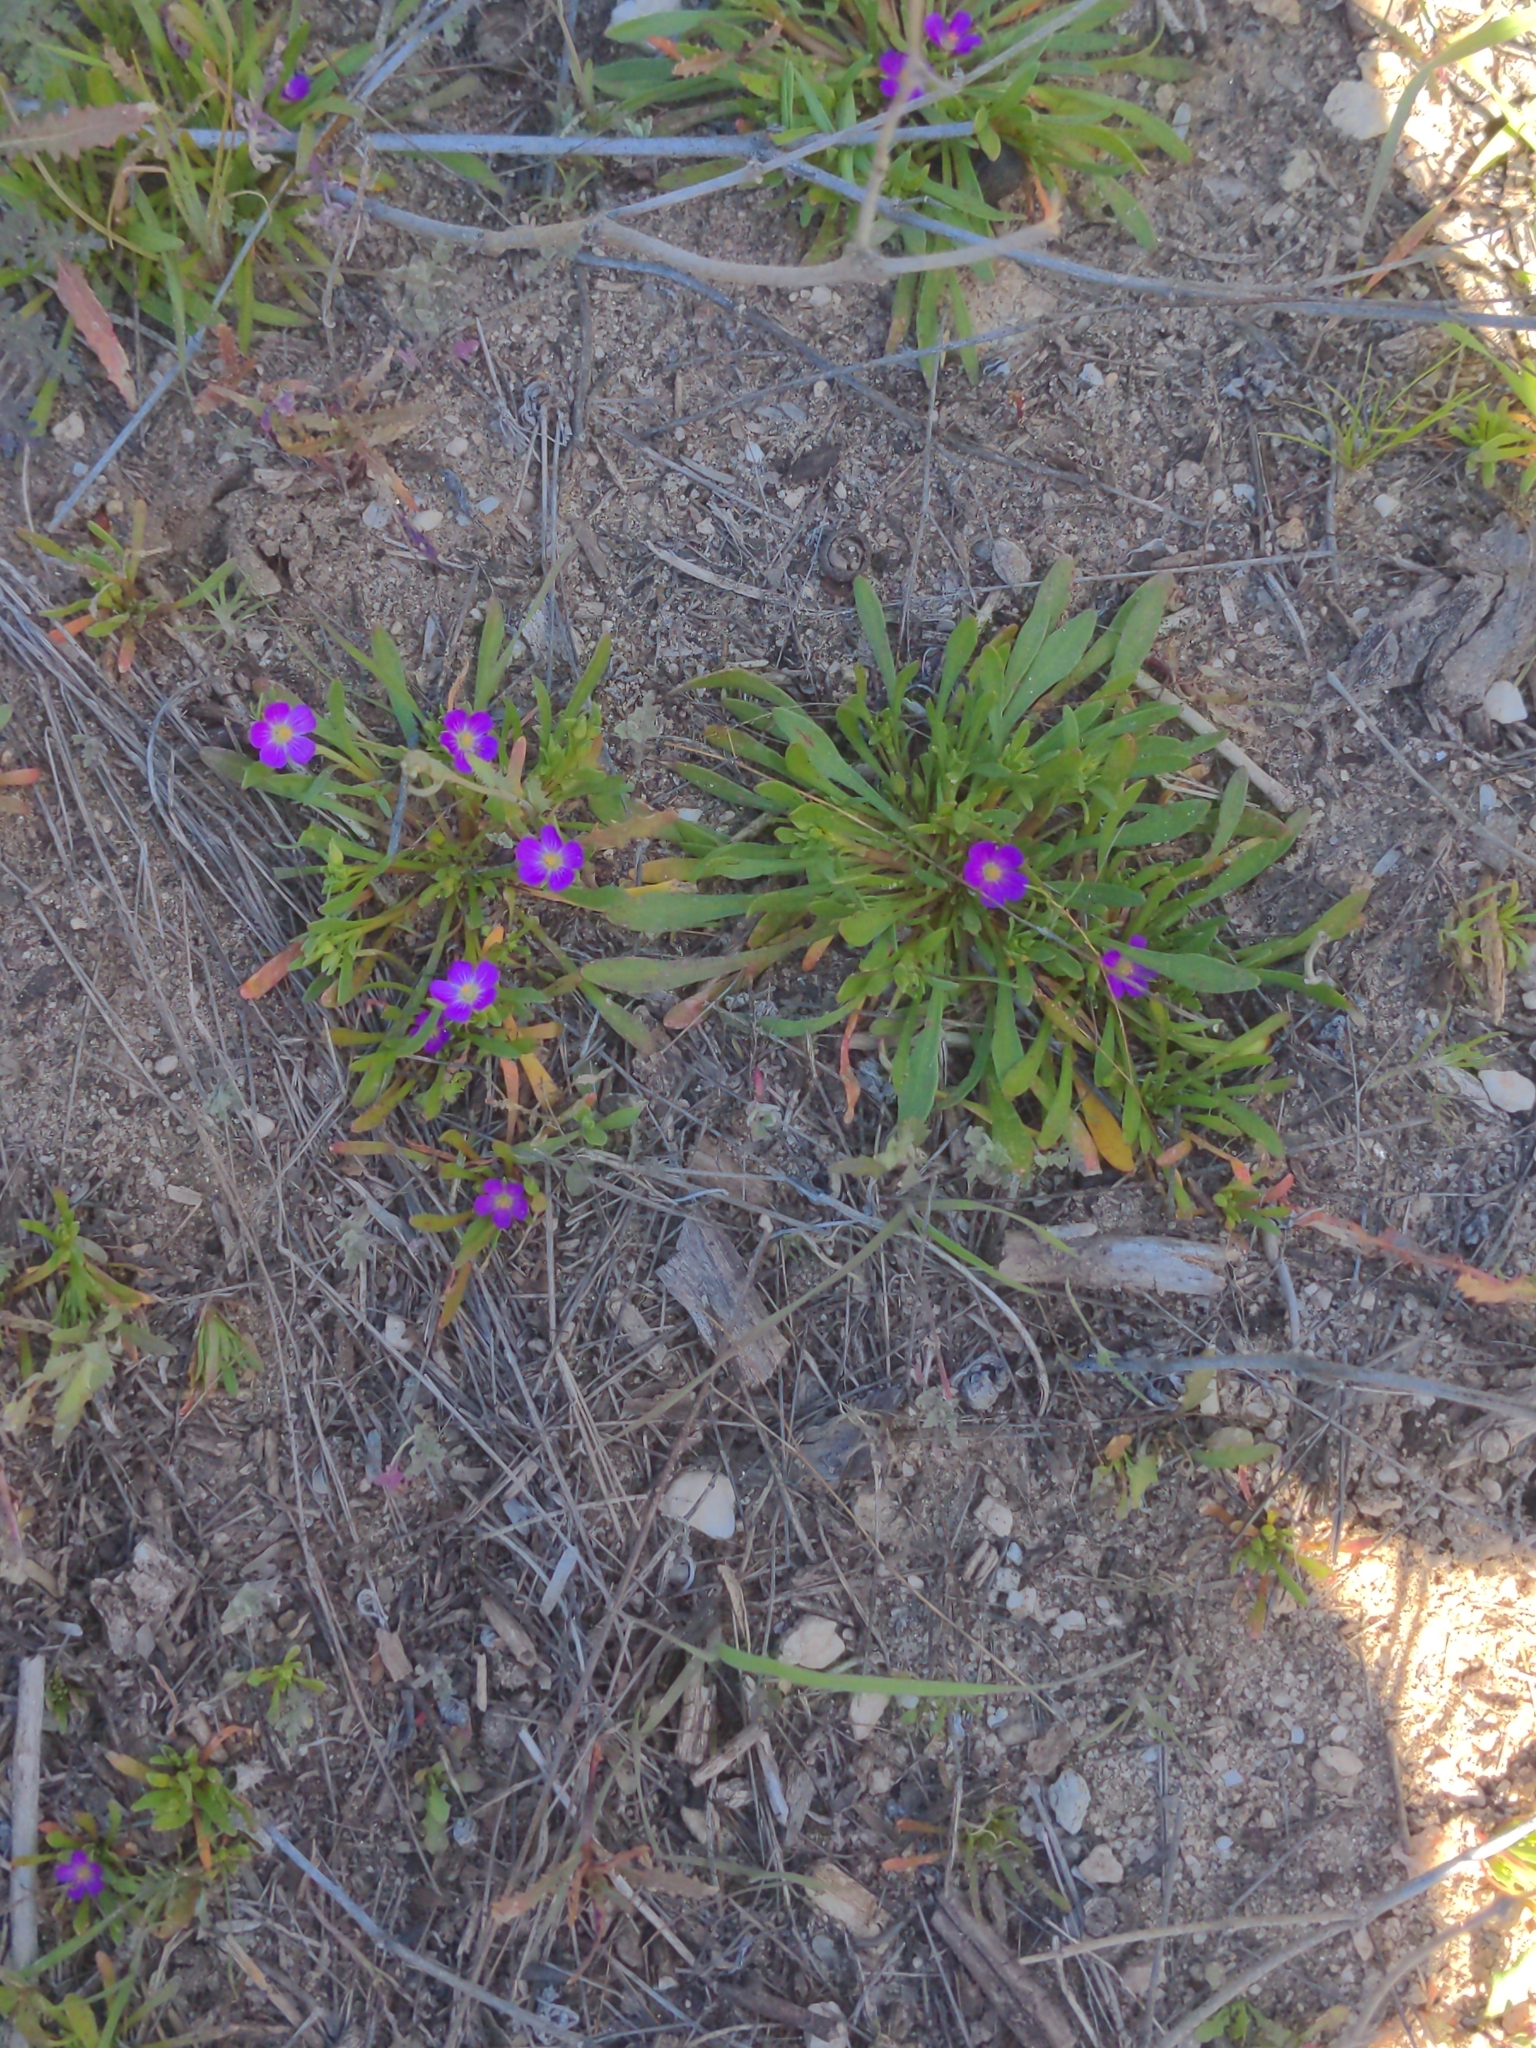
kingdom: Plantae
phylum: Tracheophyta
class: Magnoliopsida
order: Caryophyllales
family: Montiaceae
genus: Calandrinia
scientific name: Calandrinia menziesii
